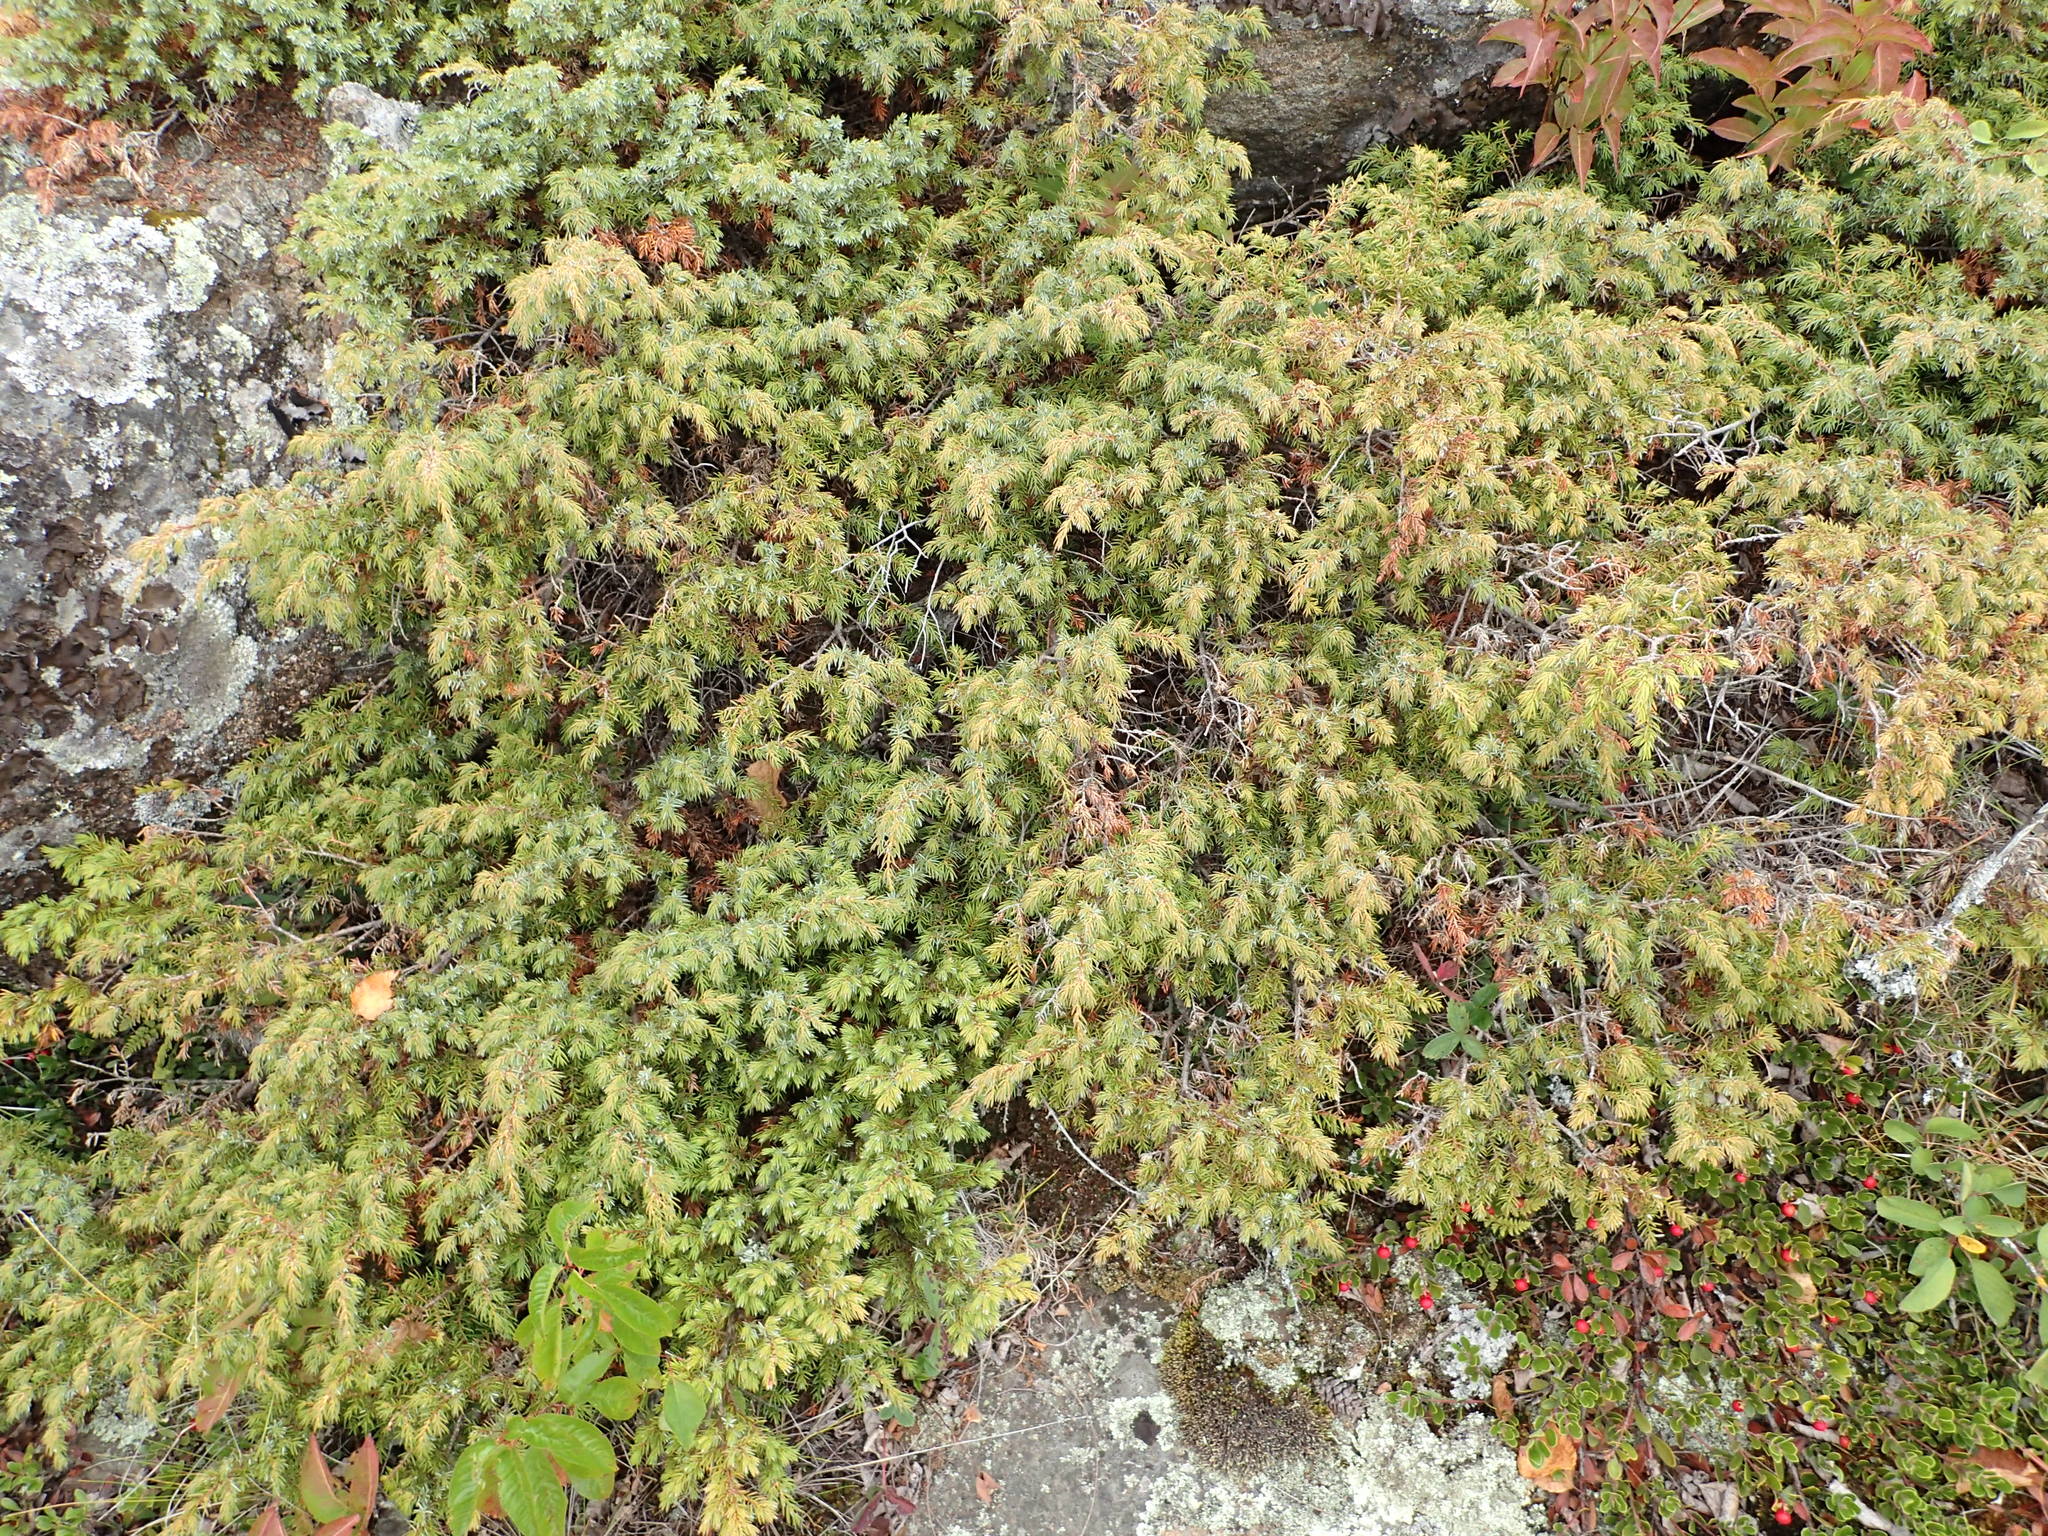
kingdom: Plantae
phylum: Tracheophyta
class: Pinopsida
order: Pinales
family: Cupressaceae
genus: Juniperus
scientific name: Juniperus communis
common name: Common juniper
